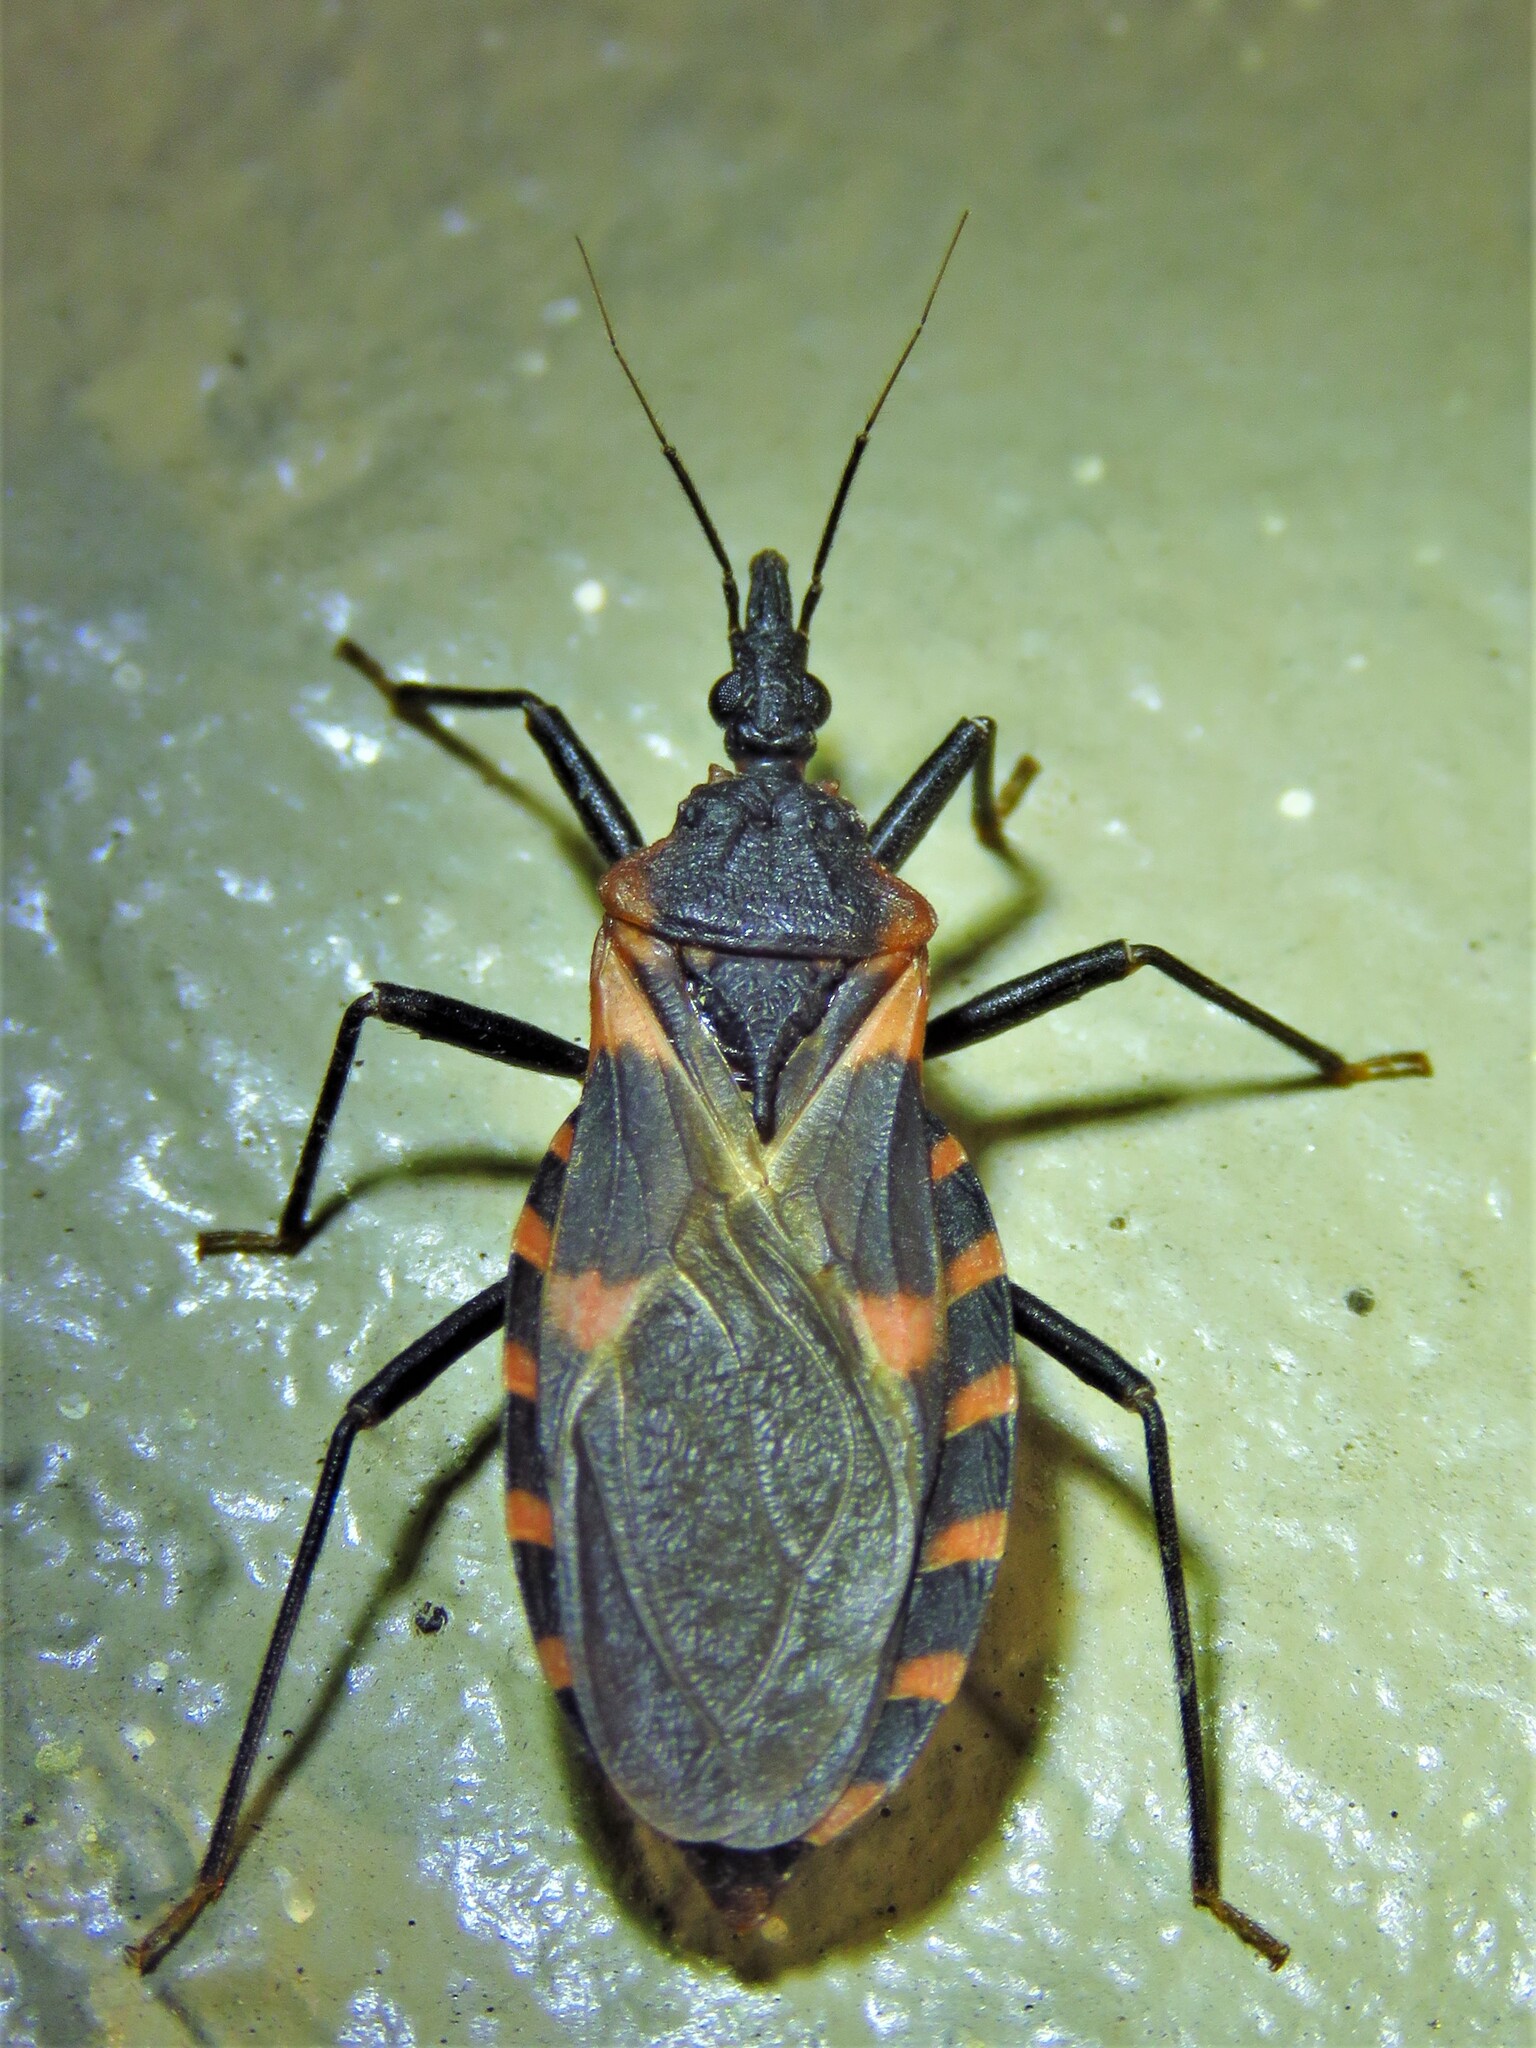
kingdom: Animalia
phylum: Arthropoda
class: Insecta
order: Hemiptera
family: Reduviidae
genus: Triatoma
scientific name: Triatoma sanguisuga
